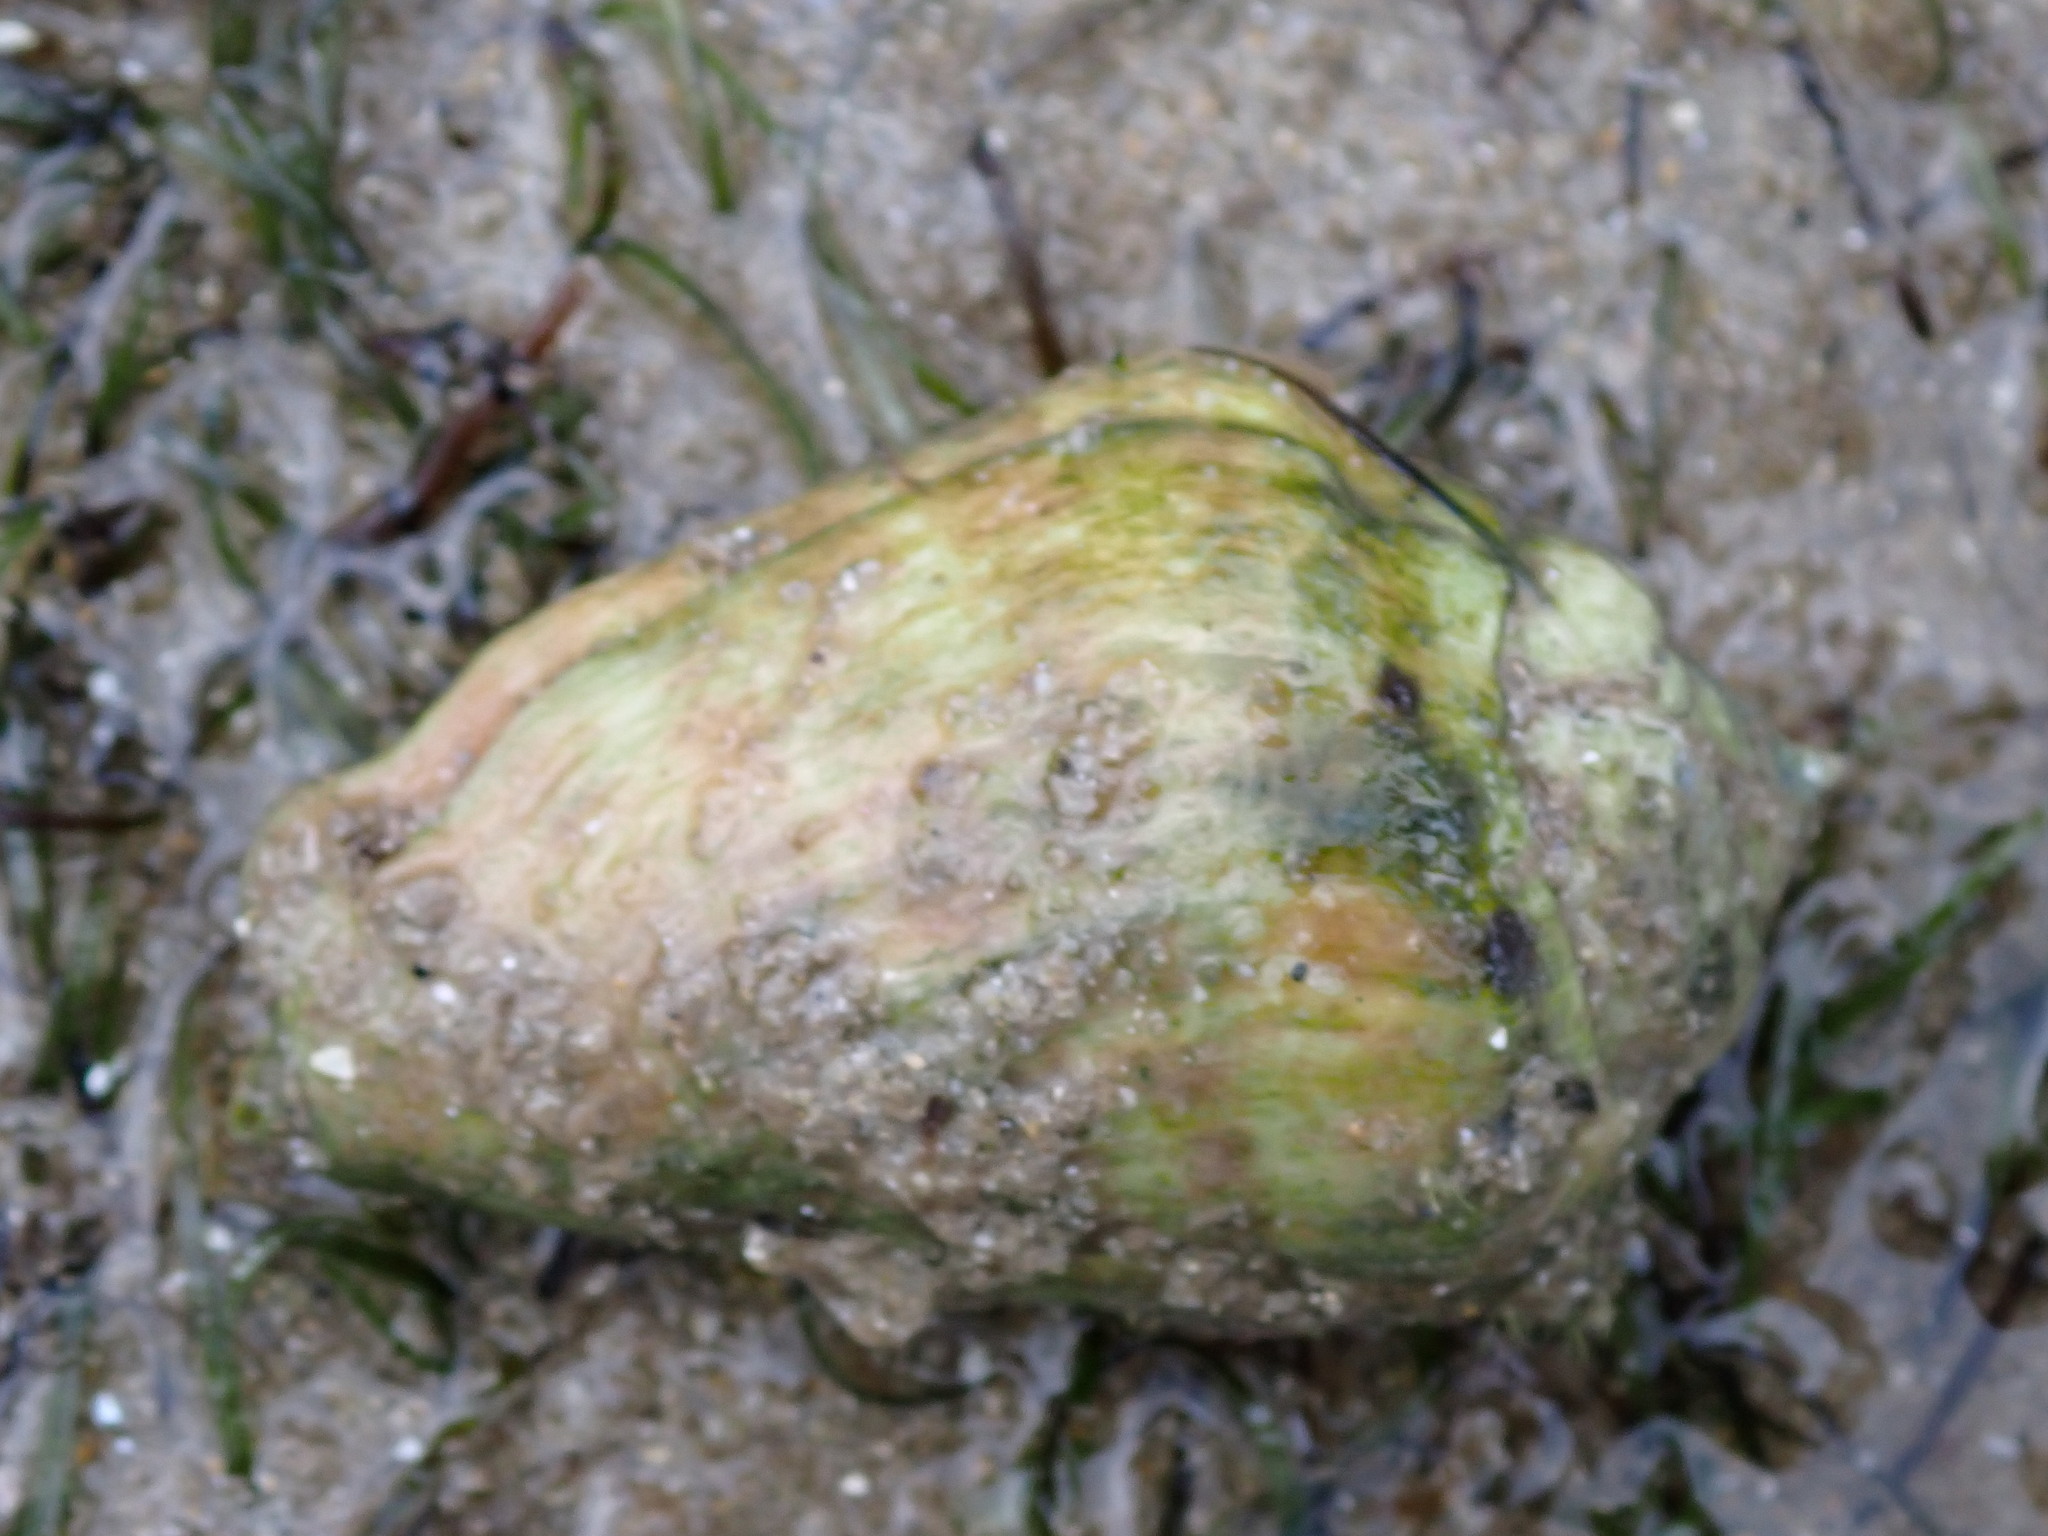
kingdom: Animalia
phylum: Mollusca
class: Gastropoda
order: Littorinimorpha
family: Strombidae
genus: Conomurex
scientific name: Conomurex luhuanus
